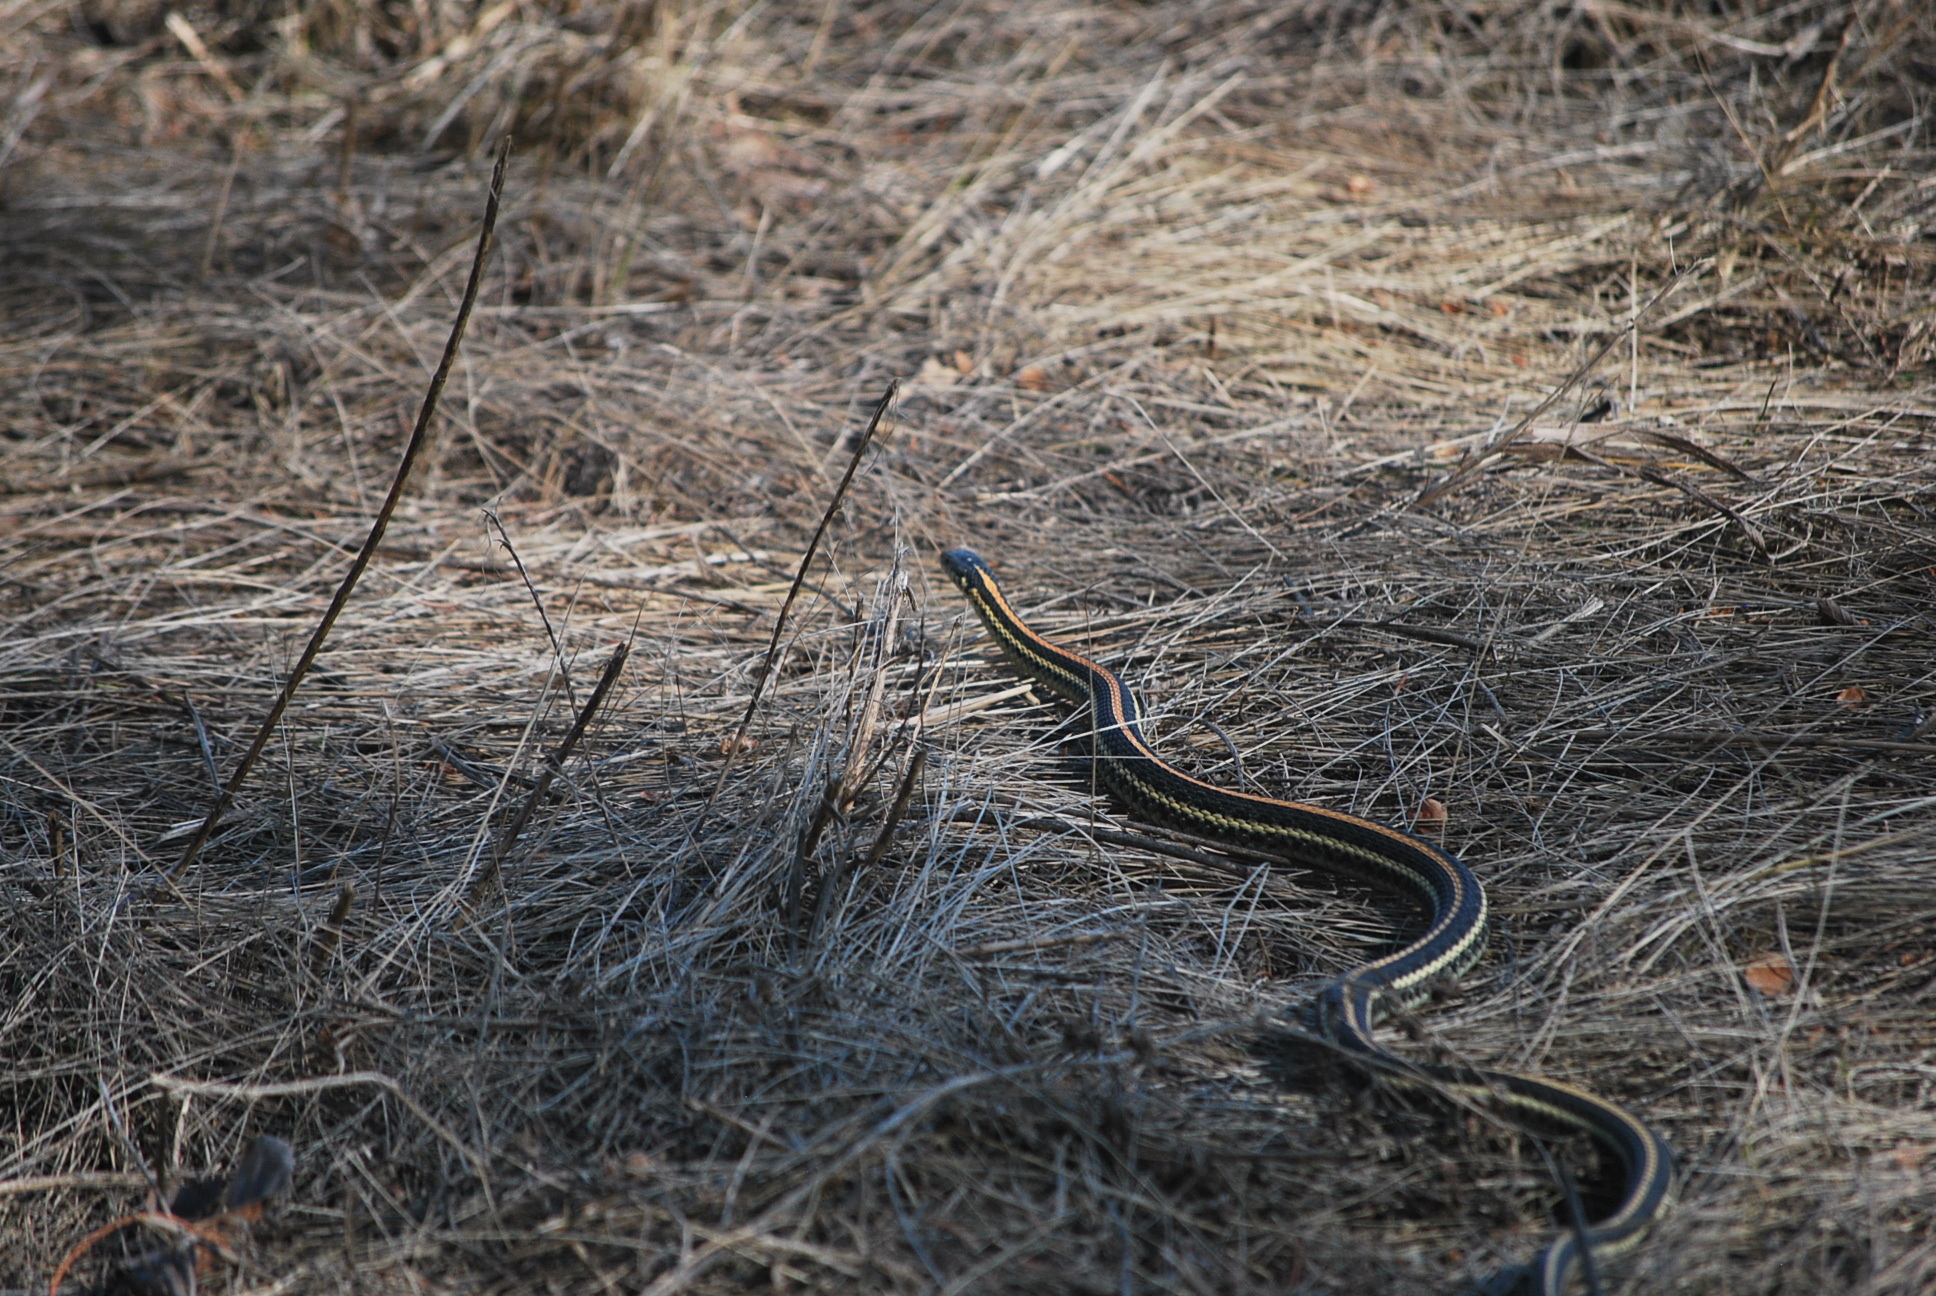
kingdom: Animalia
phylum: Chordata
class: Squamata
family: Colubridae
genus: Thamnophis
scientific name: Thamnophis radix
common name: Plains garter snake
